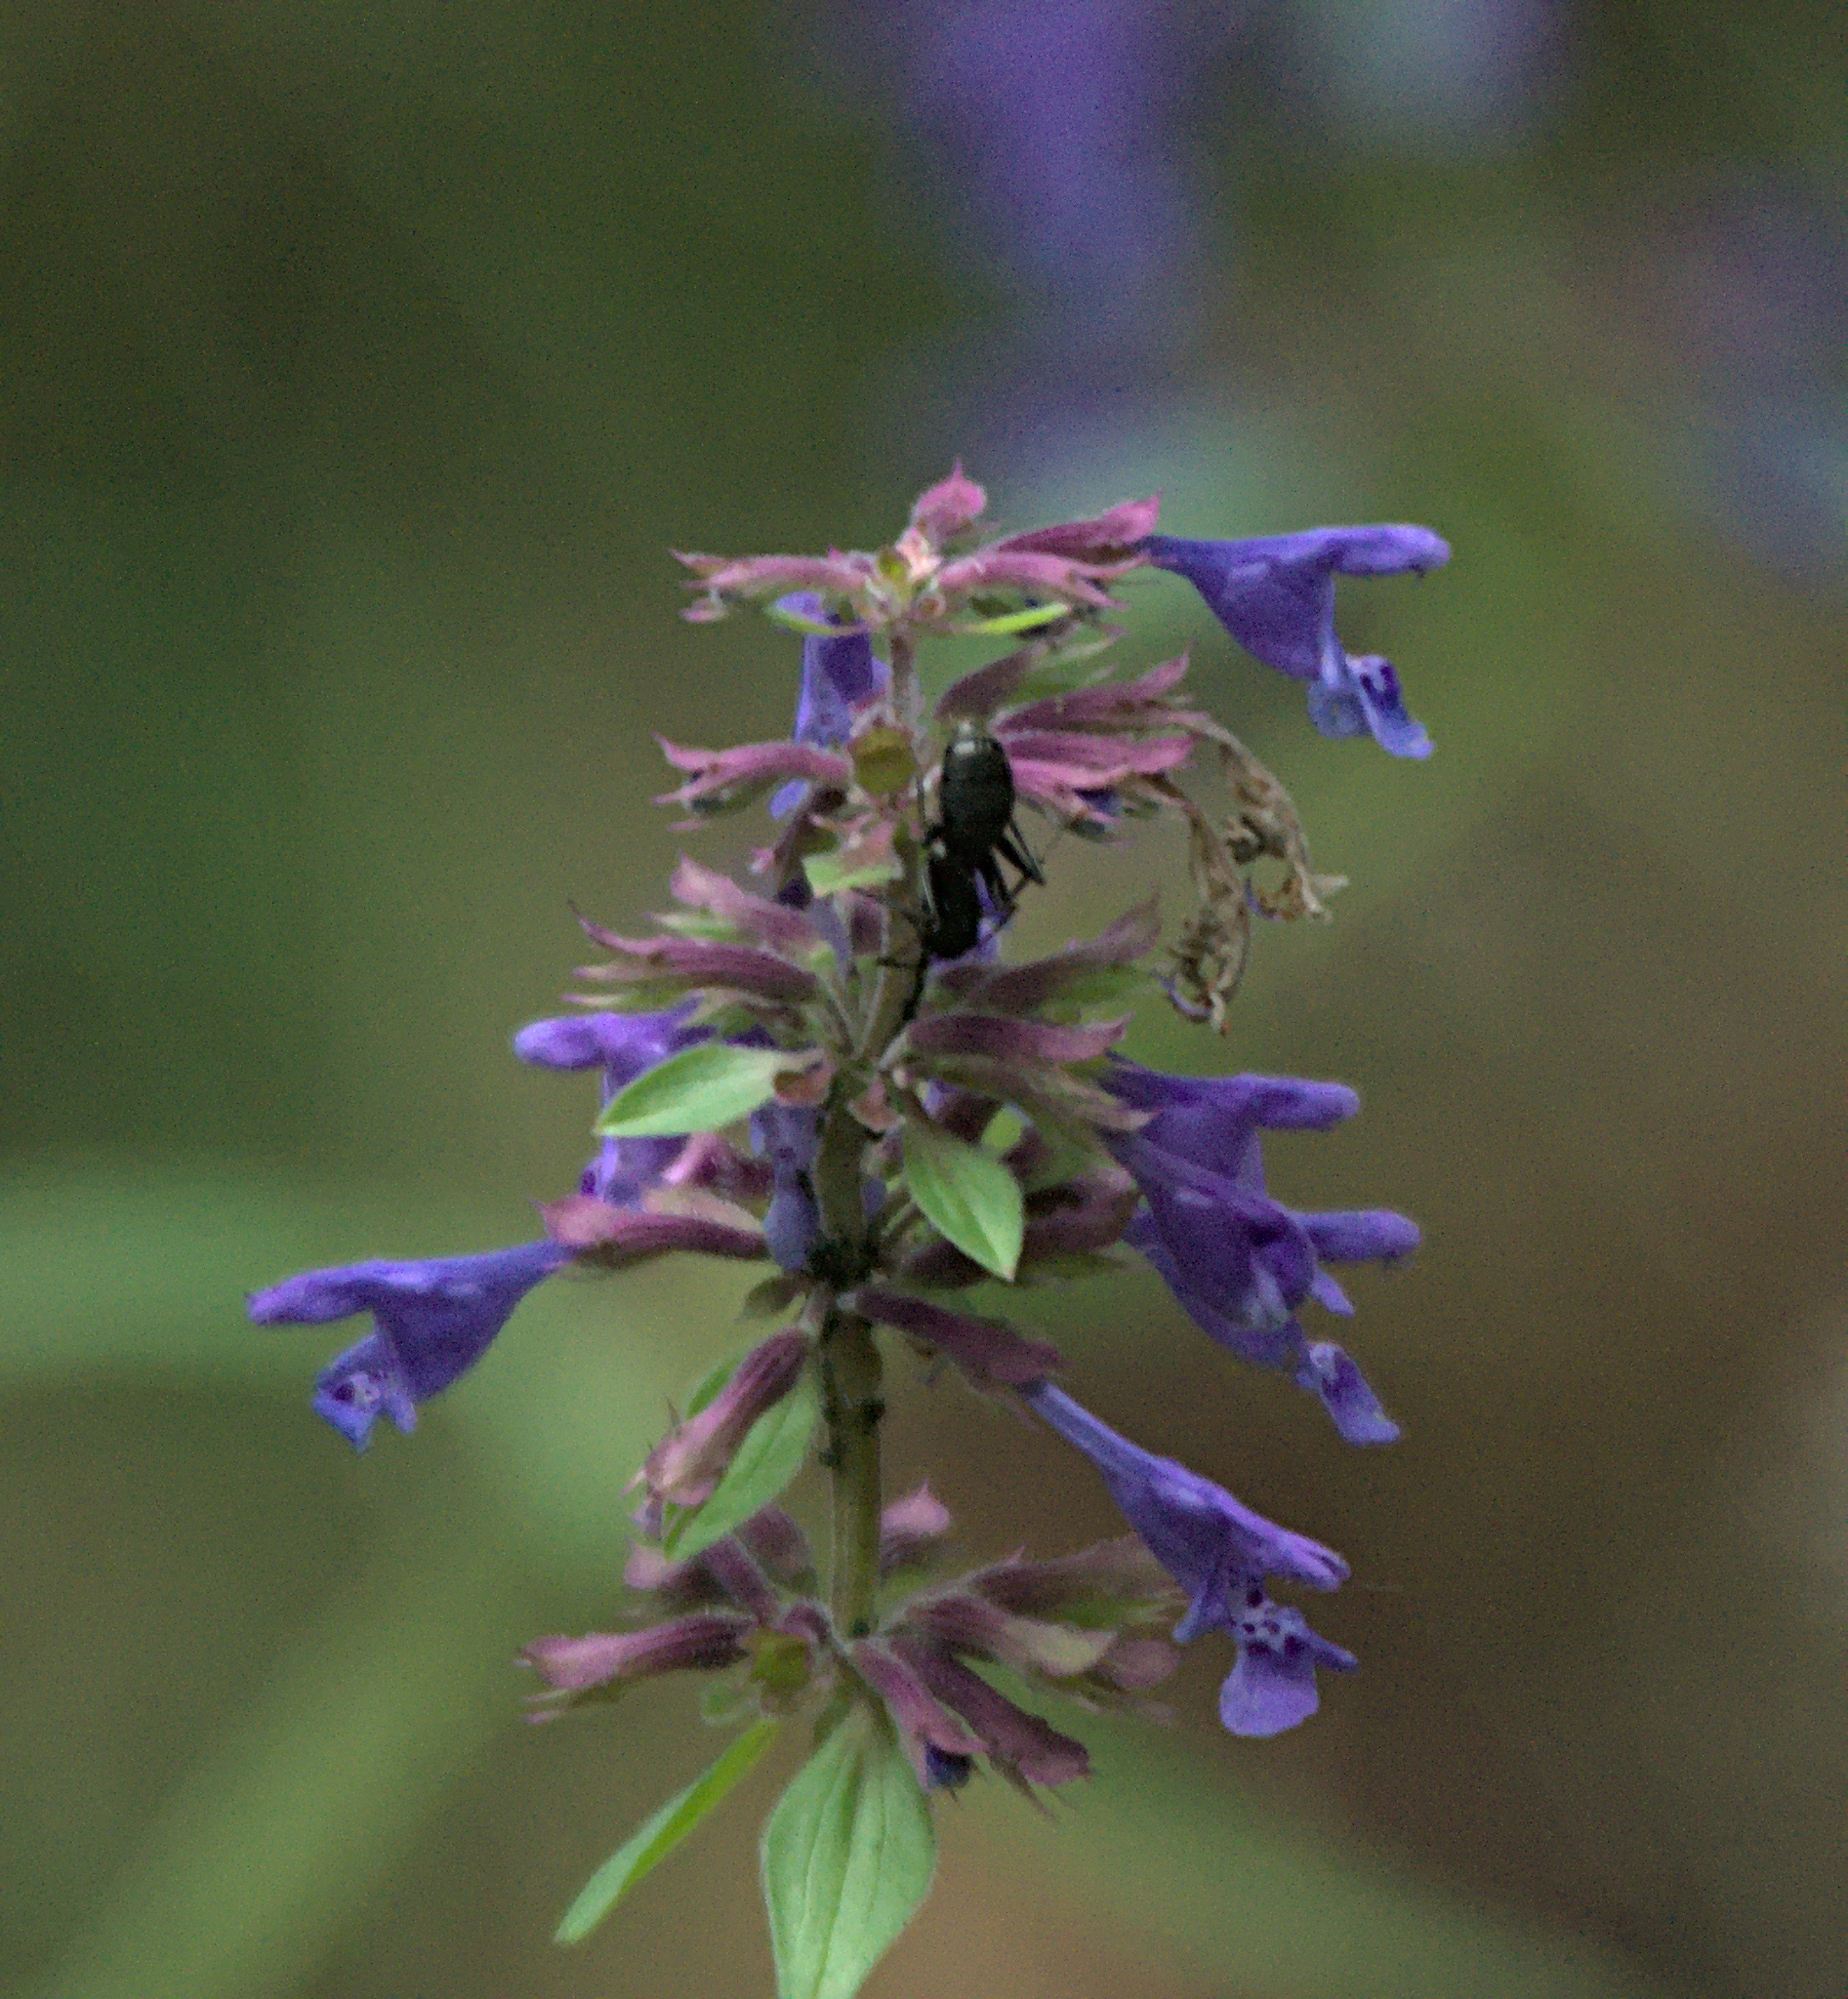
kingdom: Plantae
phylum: Tracheophyta
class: Magnoliopsida
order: Lamiales
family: Lamiaceae
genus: Dracocephalum
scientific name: Dracocephalum nutans
